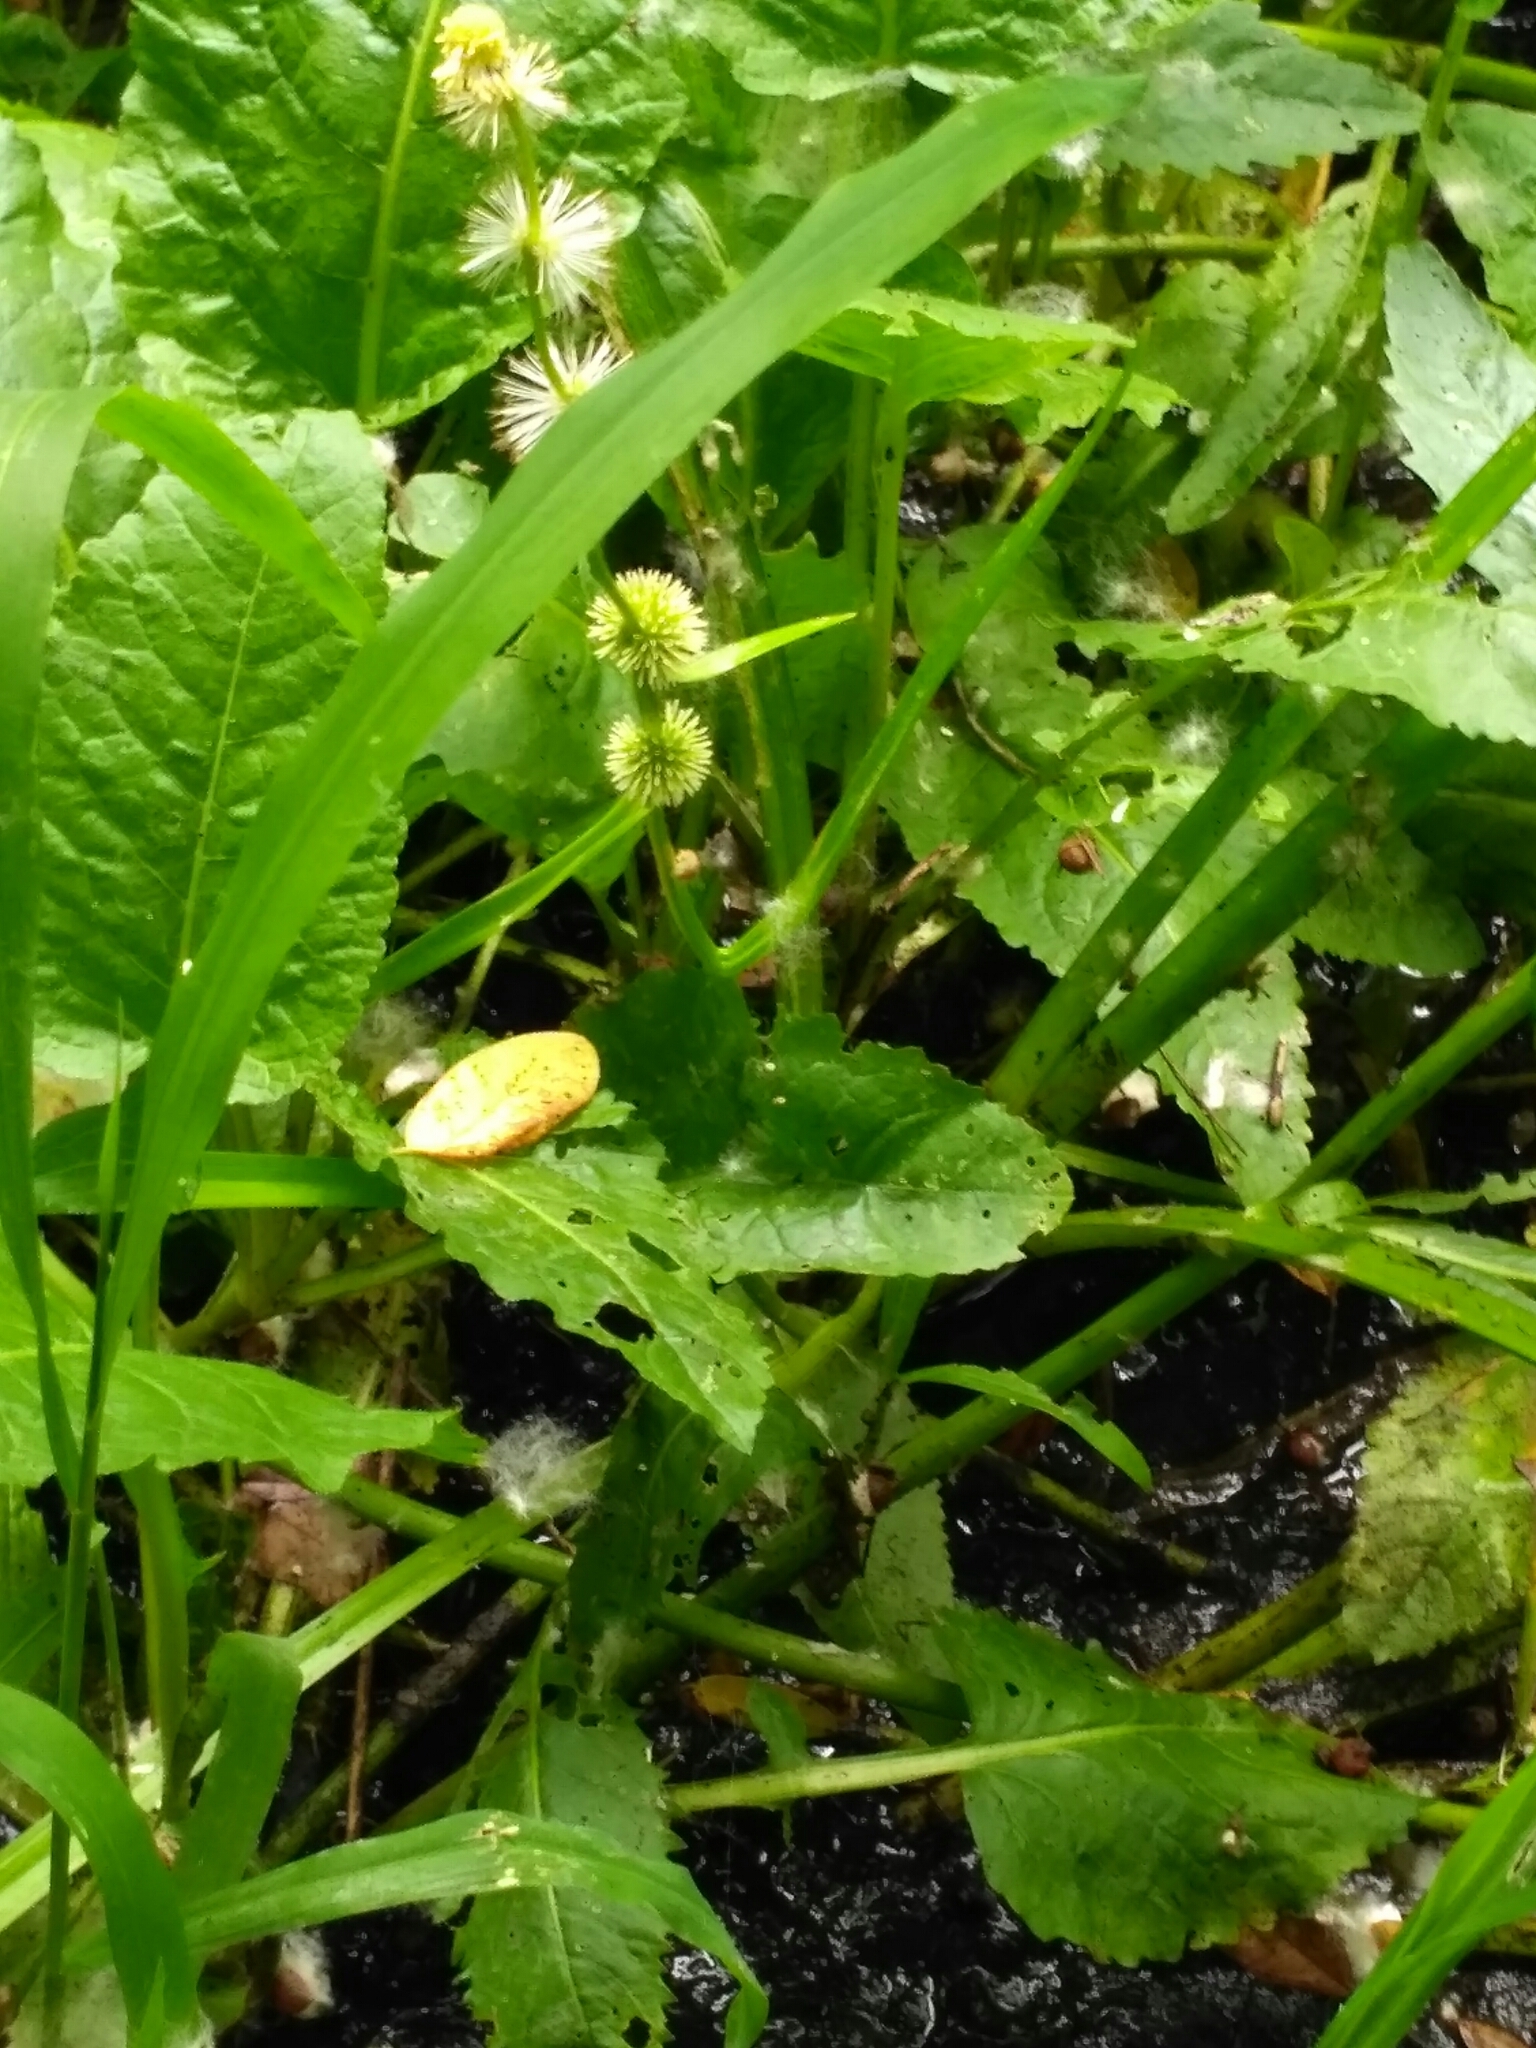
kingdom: Plantae
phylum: Tracheophyta
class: Liliopsida
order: Poales
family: Typhaceae
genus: Sparganium
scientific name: Sparganium emersum
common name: Unbranched bur-reed
